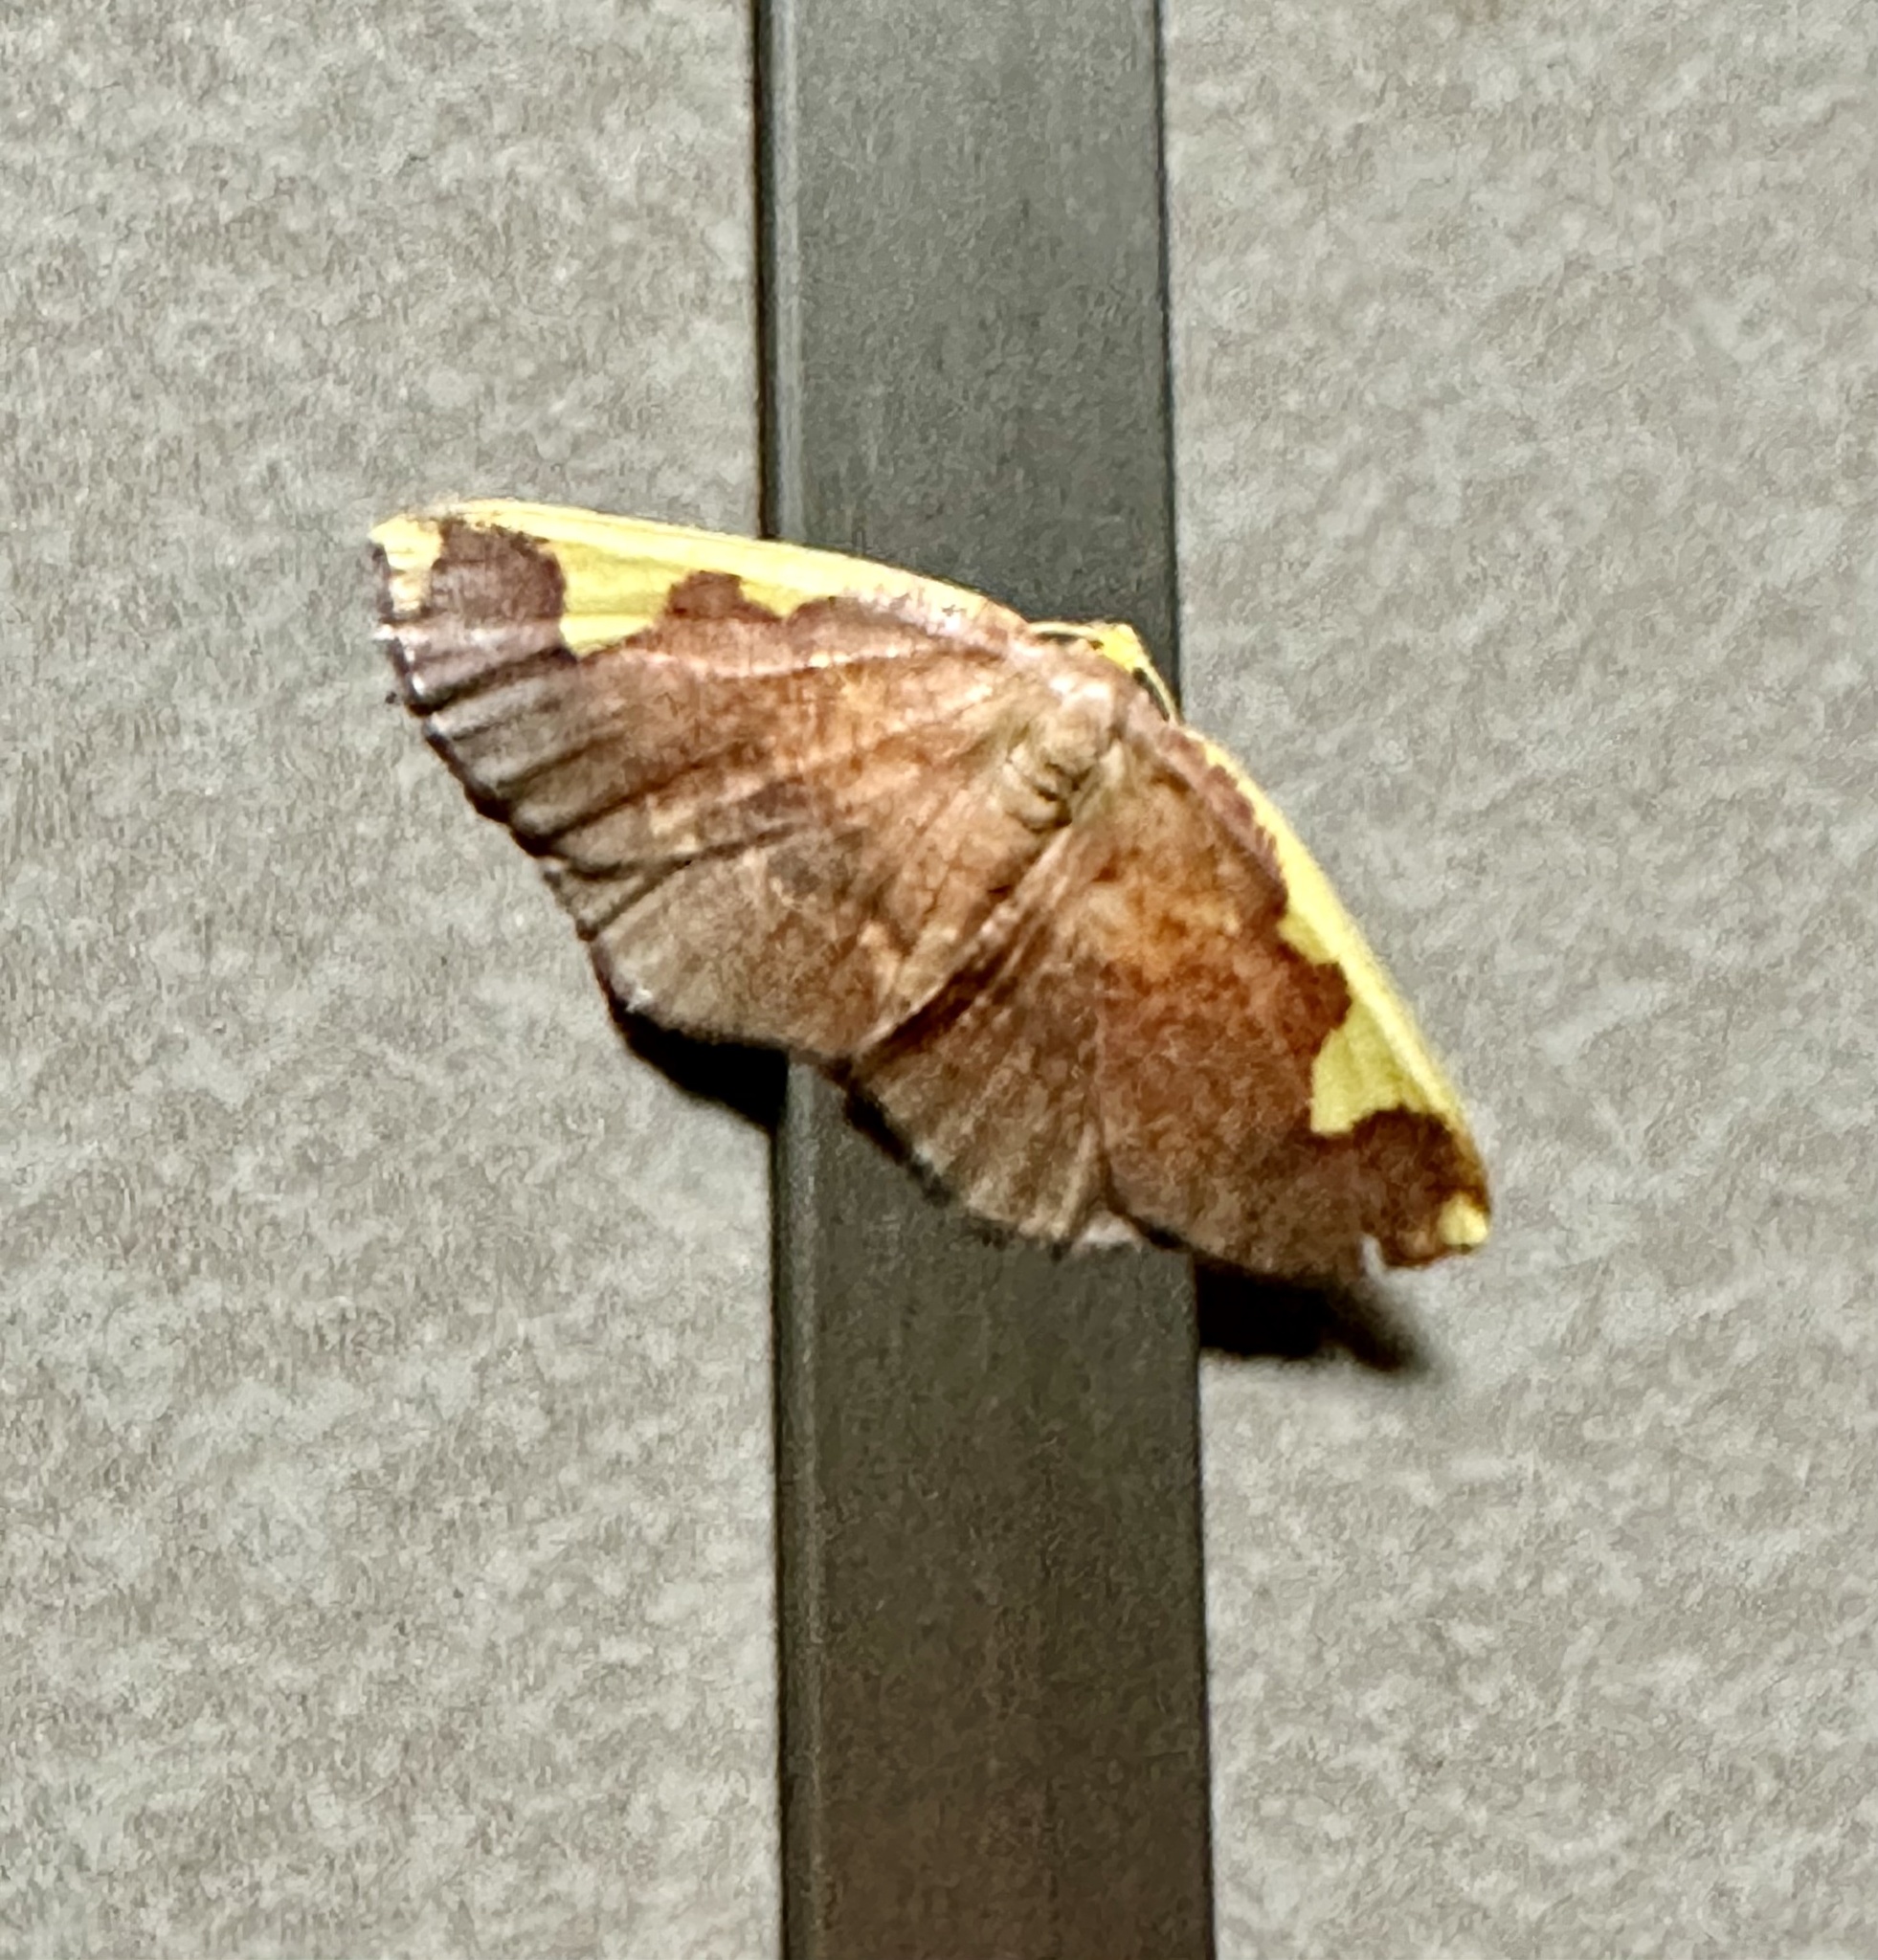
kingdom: Animalia
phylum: Arthropoda
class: Insecta
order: Lepidoptera
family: Geometridae
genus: Nothomiza
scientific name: Nothomiza formosa
